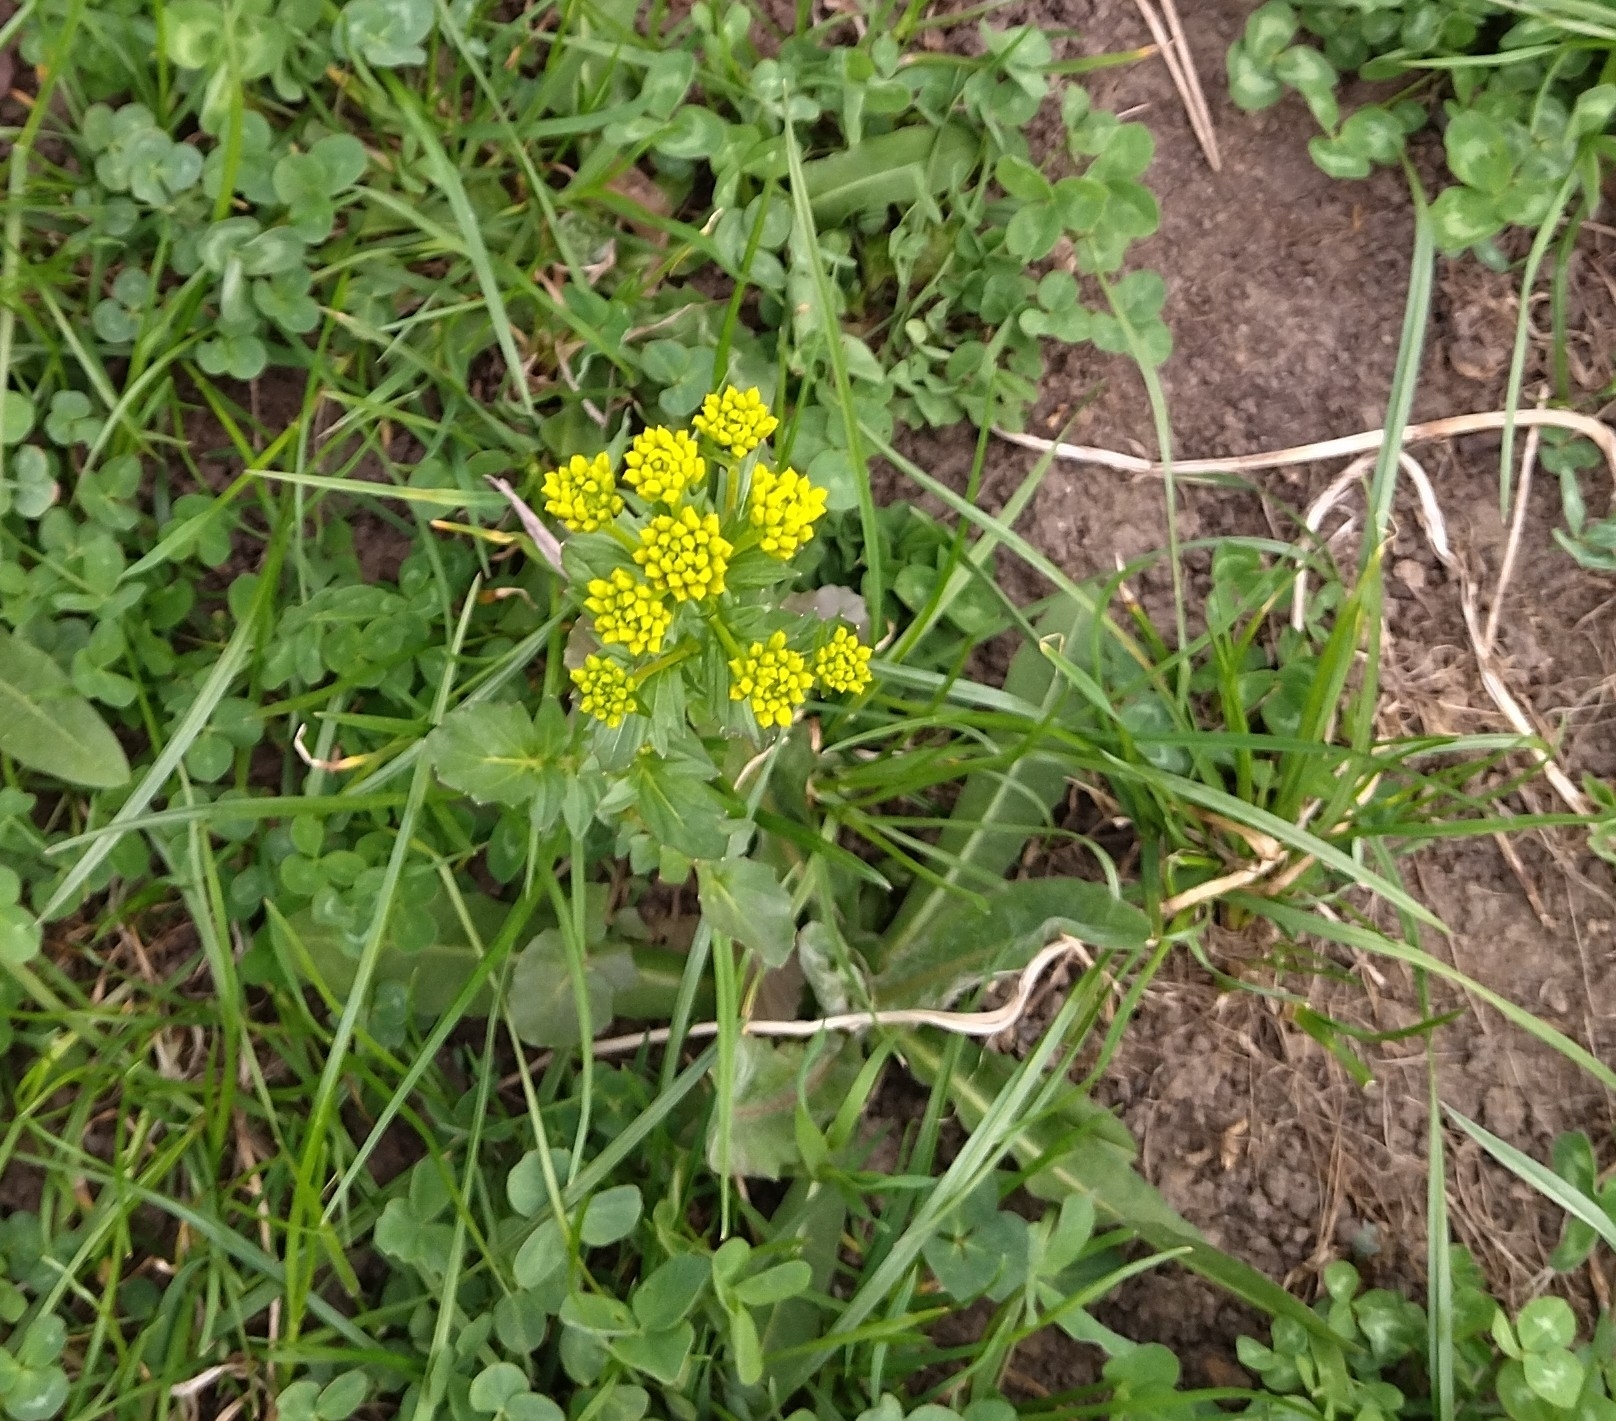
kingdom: Plantae
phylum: Tracheophyta
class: Magnoliopsida
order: Brassicales
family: Brassicaceae
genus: Barbarea
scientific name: Barbarea vulgaris
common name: Cressy-greens
